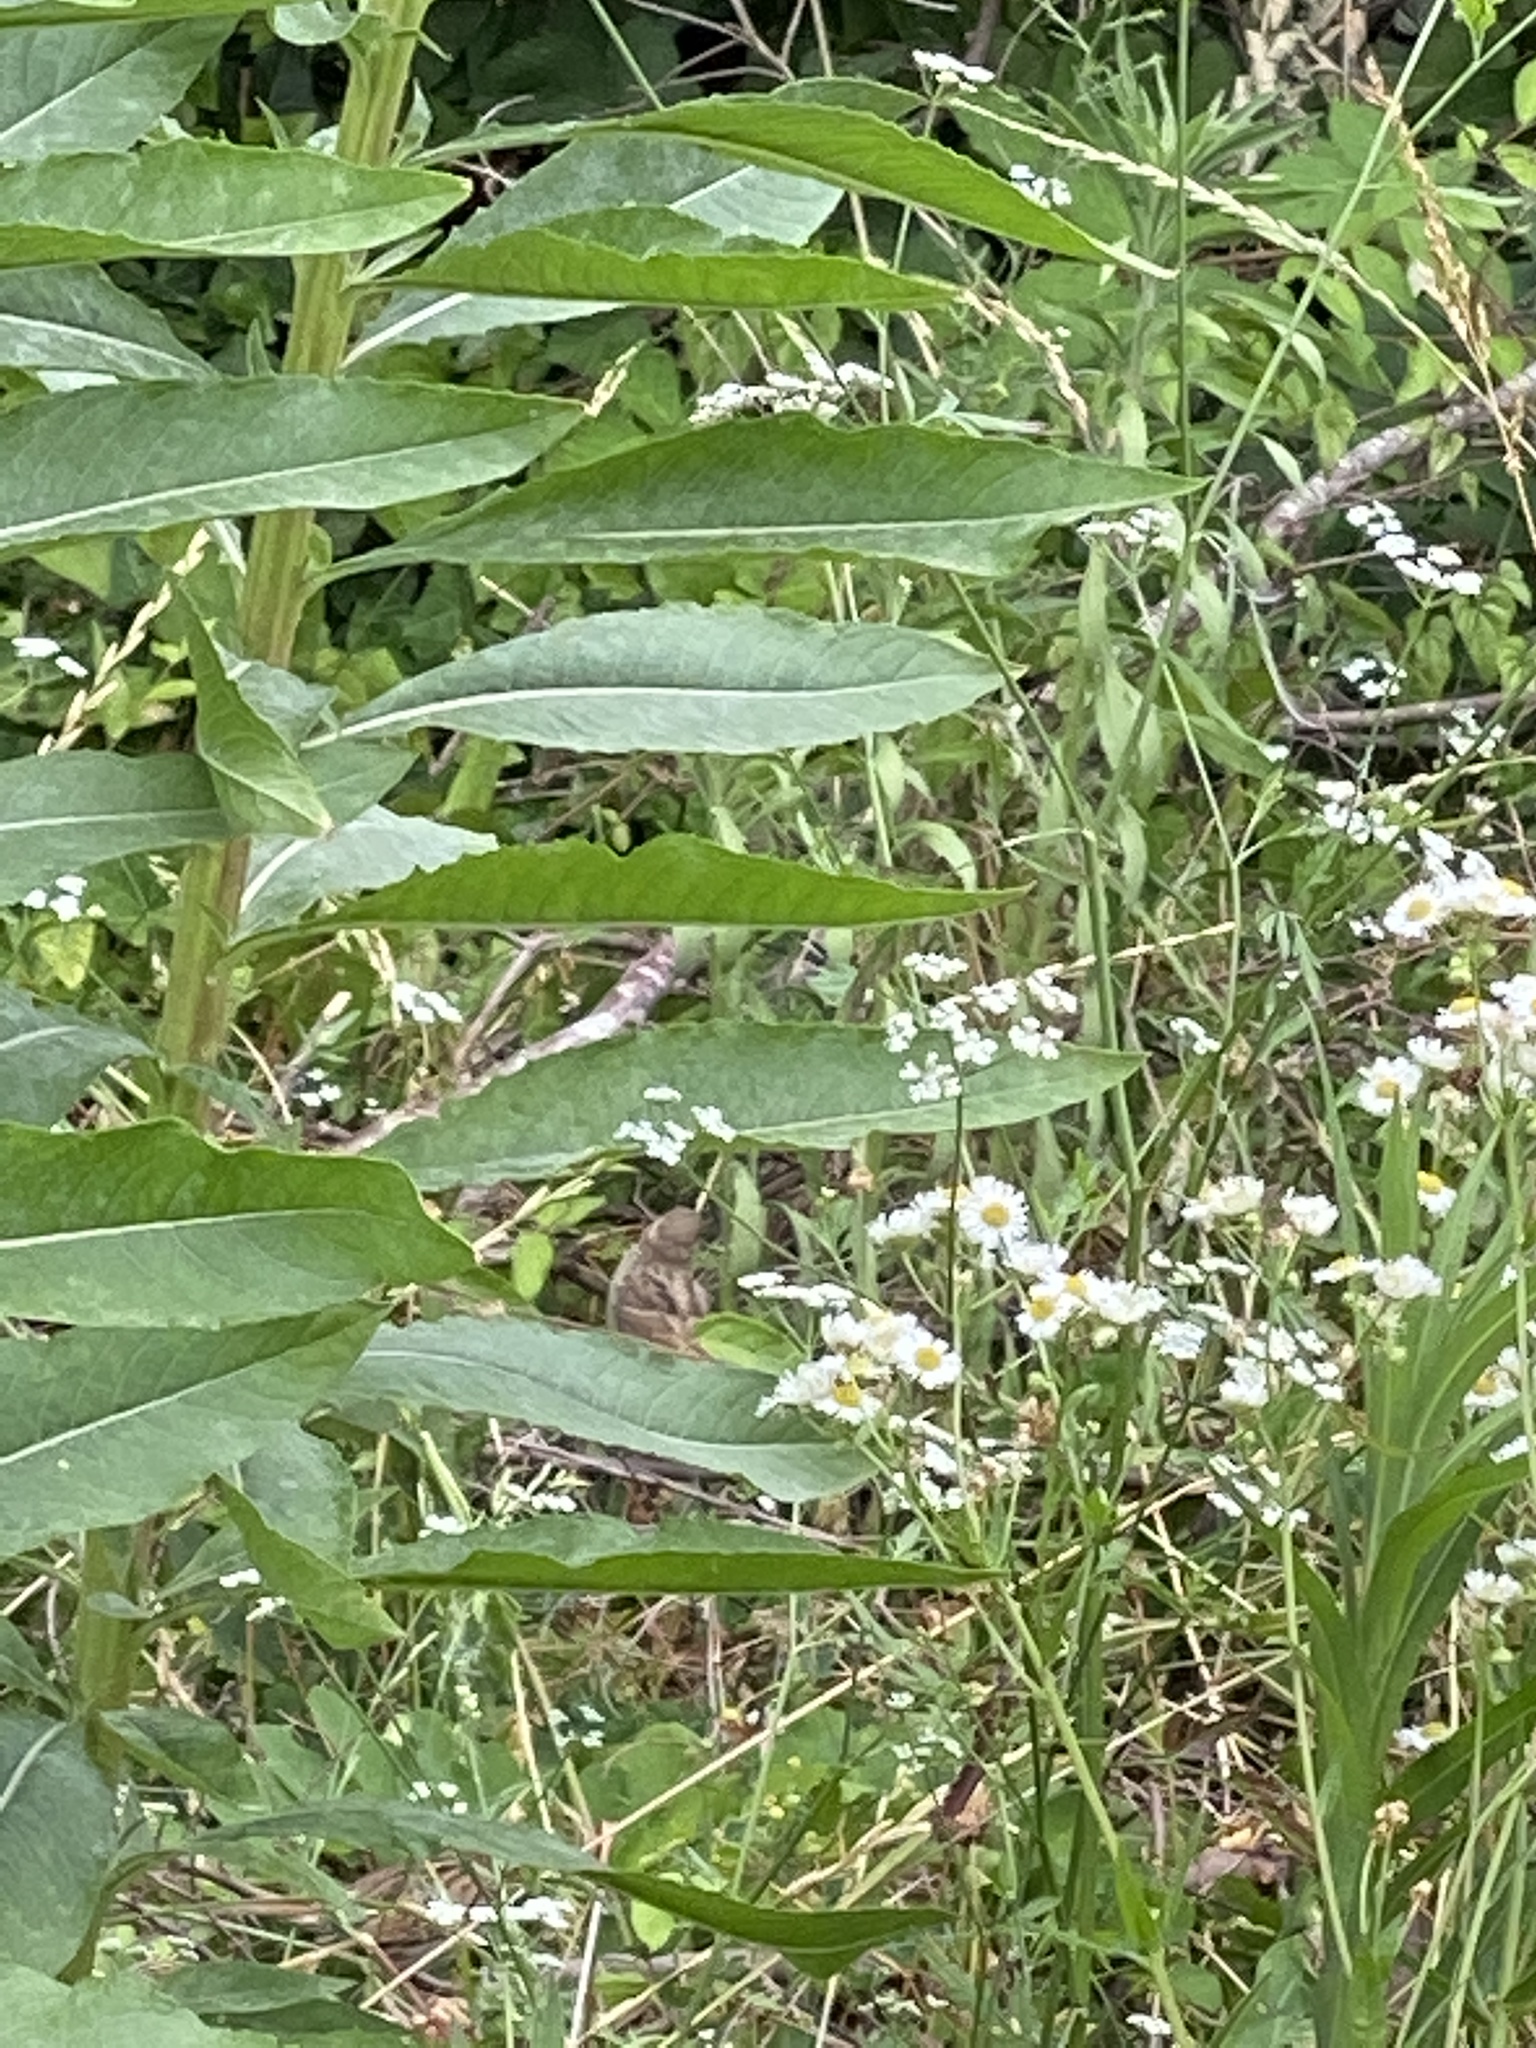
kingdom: Animalia
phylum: Chordata
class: Aves
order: Passeriformes
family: Passerellidae
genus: Melospiza
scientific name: Melospiza melodia
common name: Song sparrow
